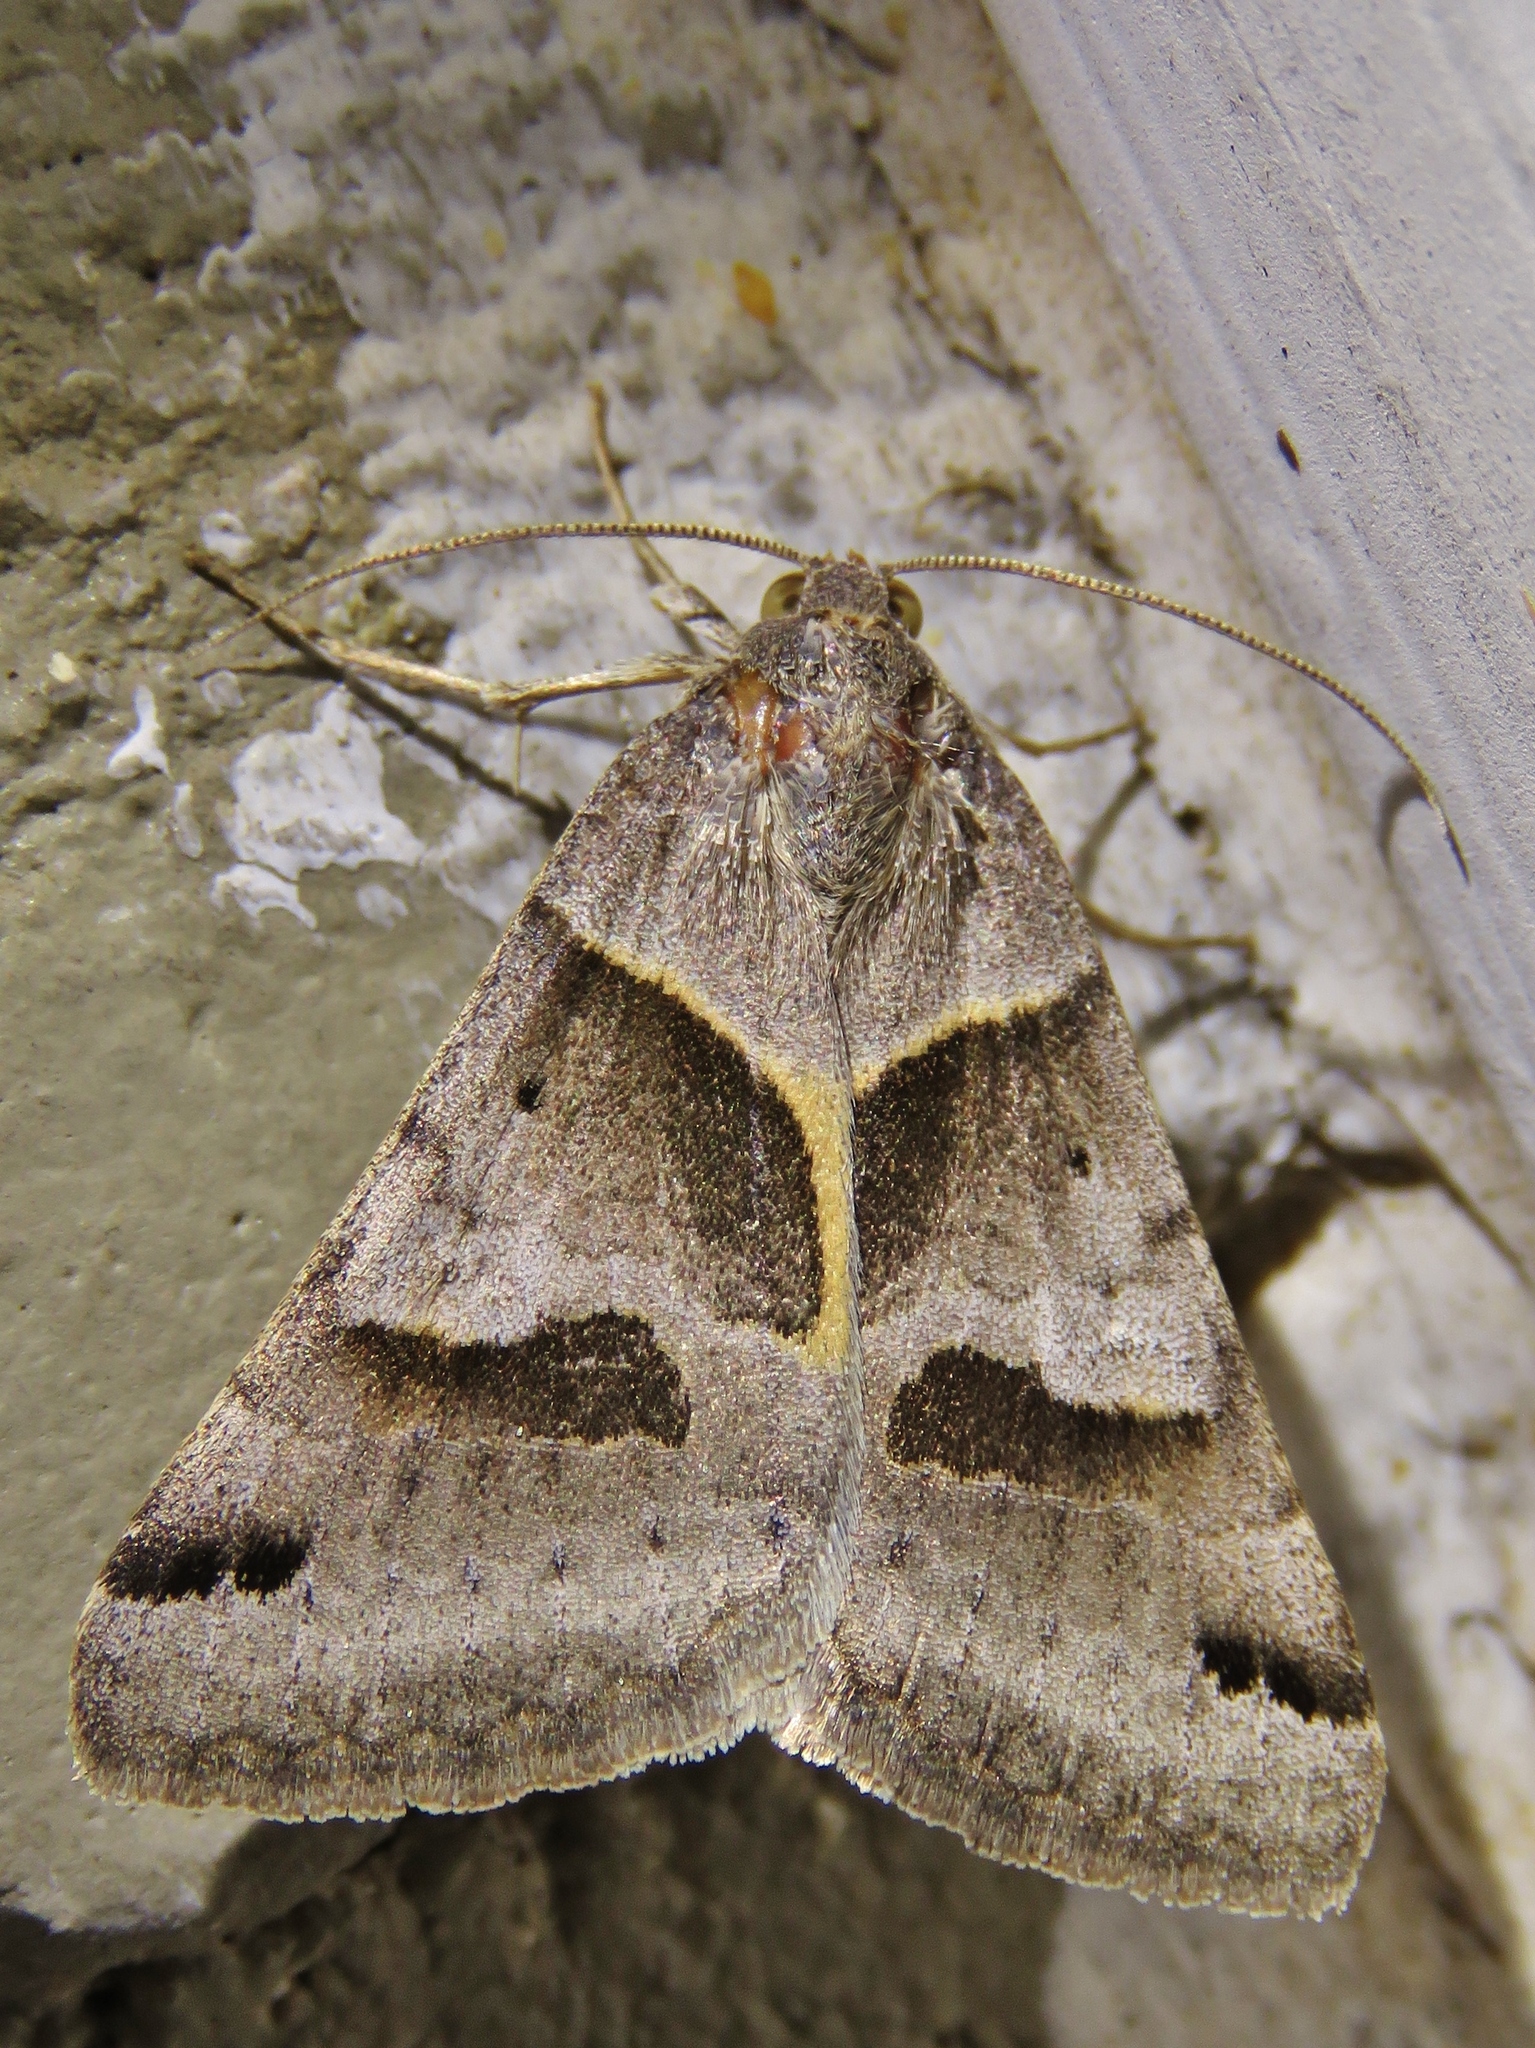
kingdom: Animalia
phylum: Arthropoda
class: Insecta
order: Lepidoptera
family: Erebidae
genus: Caenurgina
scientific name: Caenurgina erechtea
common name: Forage looper moth
